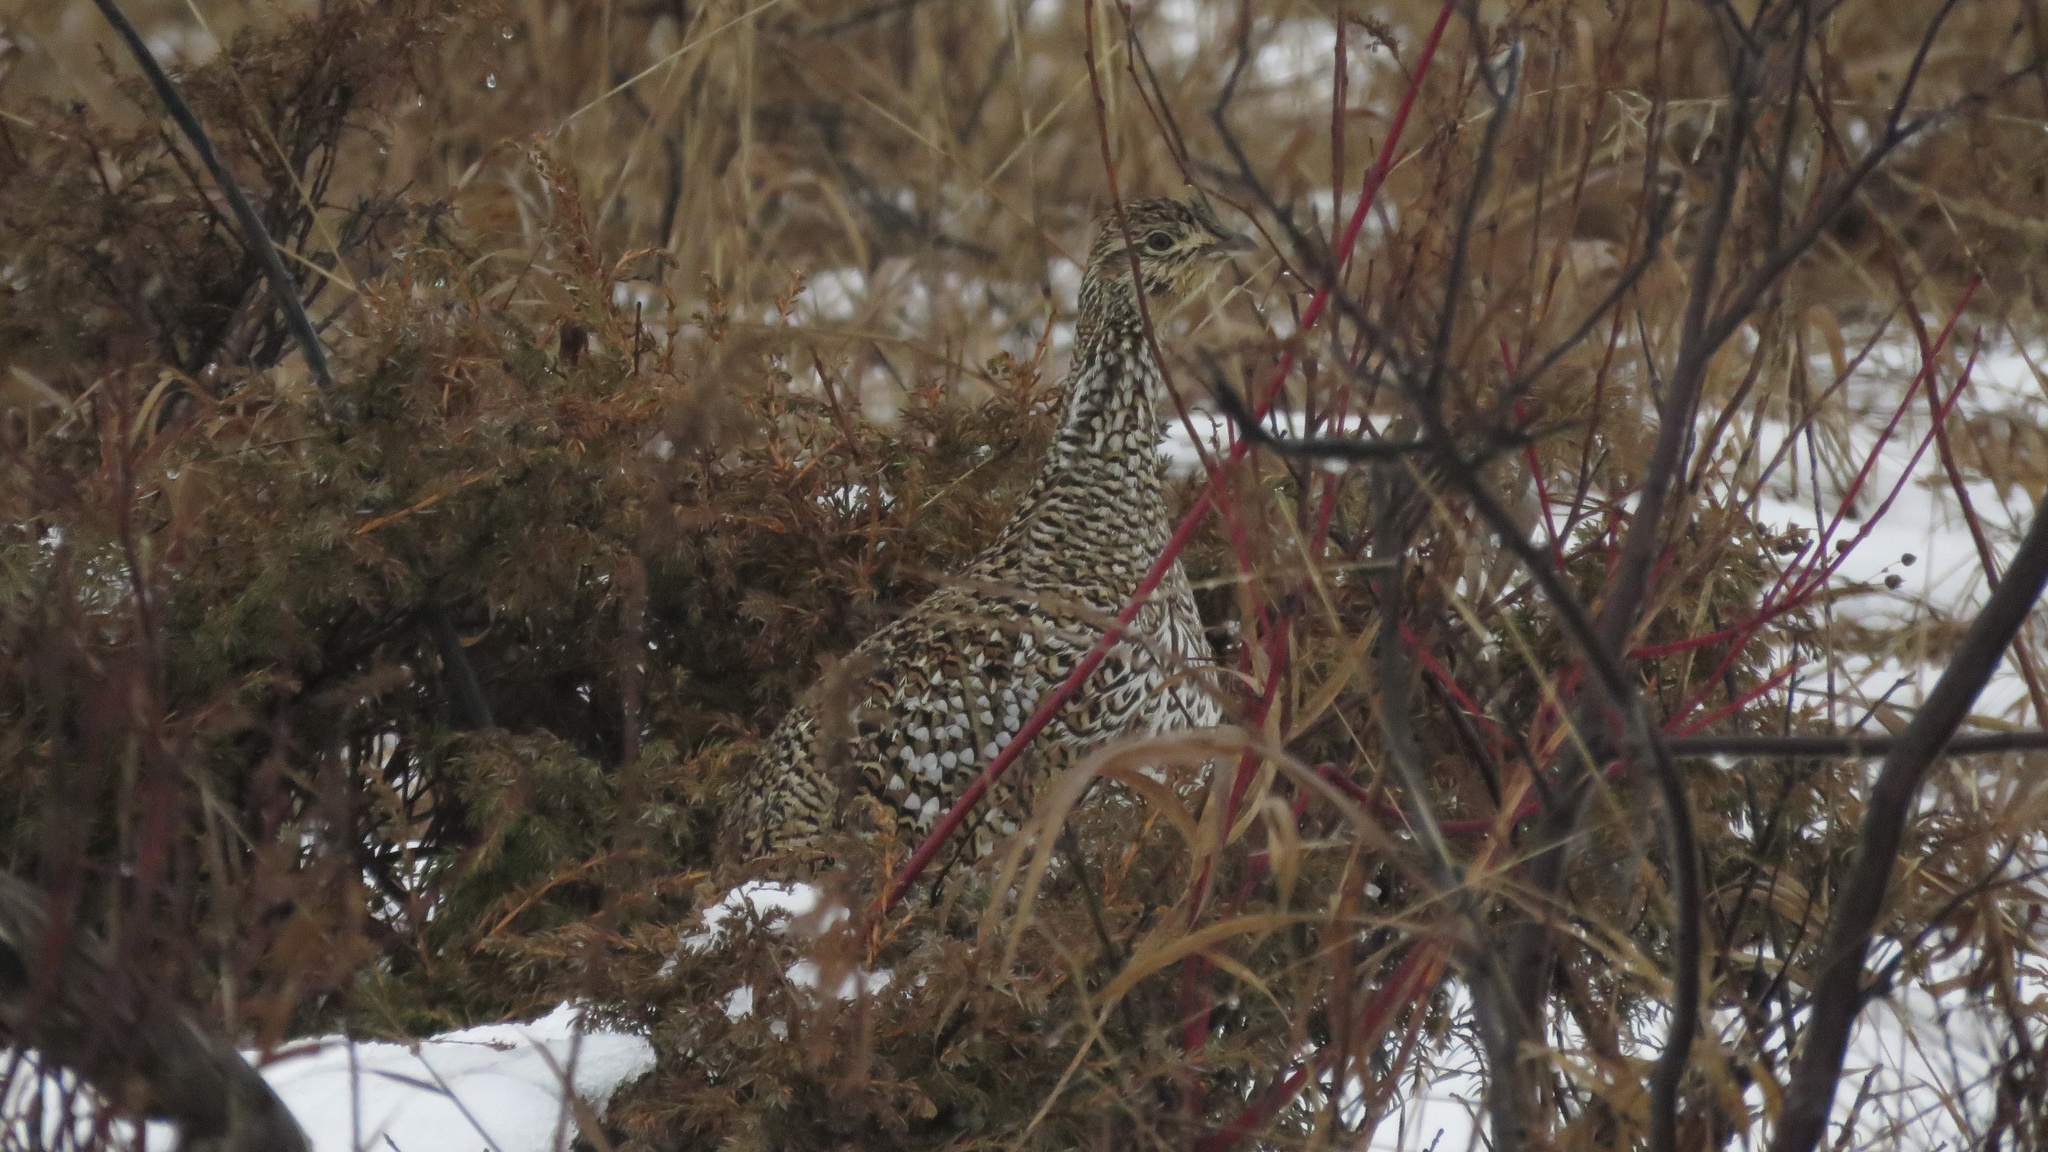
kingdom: Animalia
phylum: Chordata
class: Aves
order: Galliformes
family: Phasianidae
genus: Tympanuchus
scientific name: Tympanuchus phasianellus
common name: Sharp-tailed grouse
